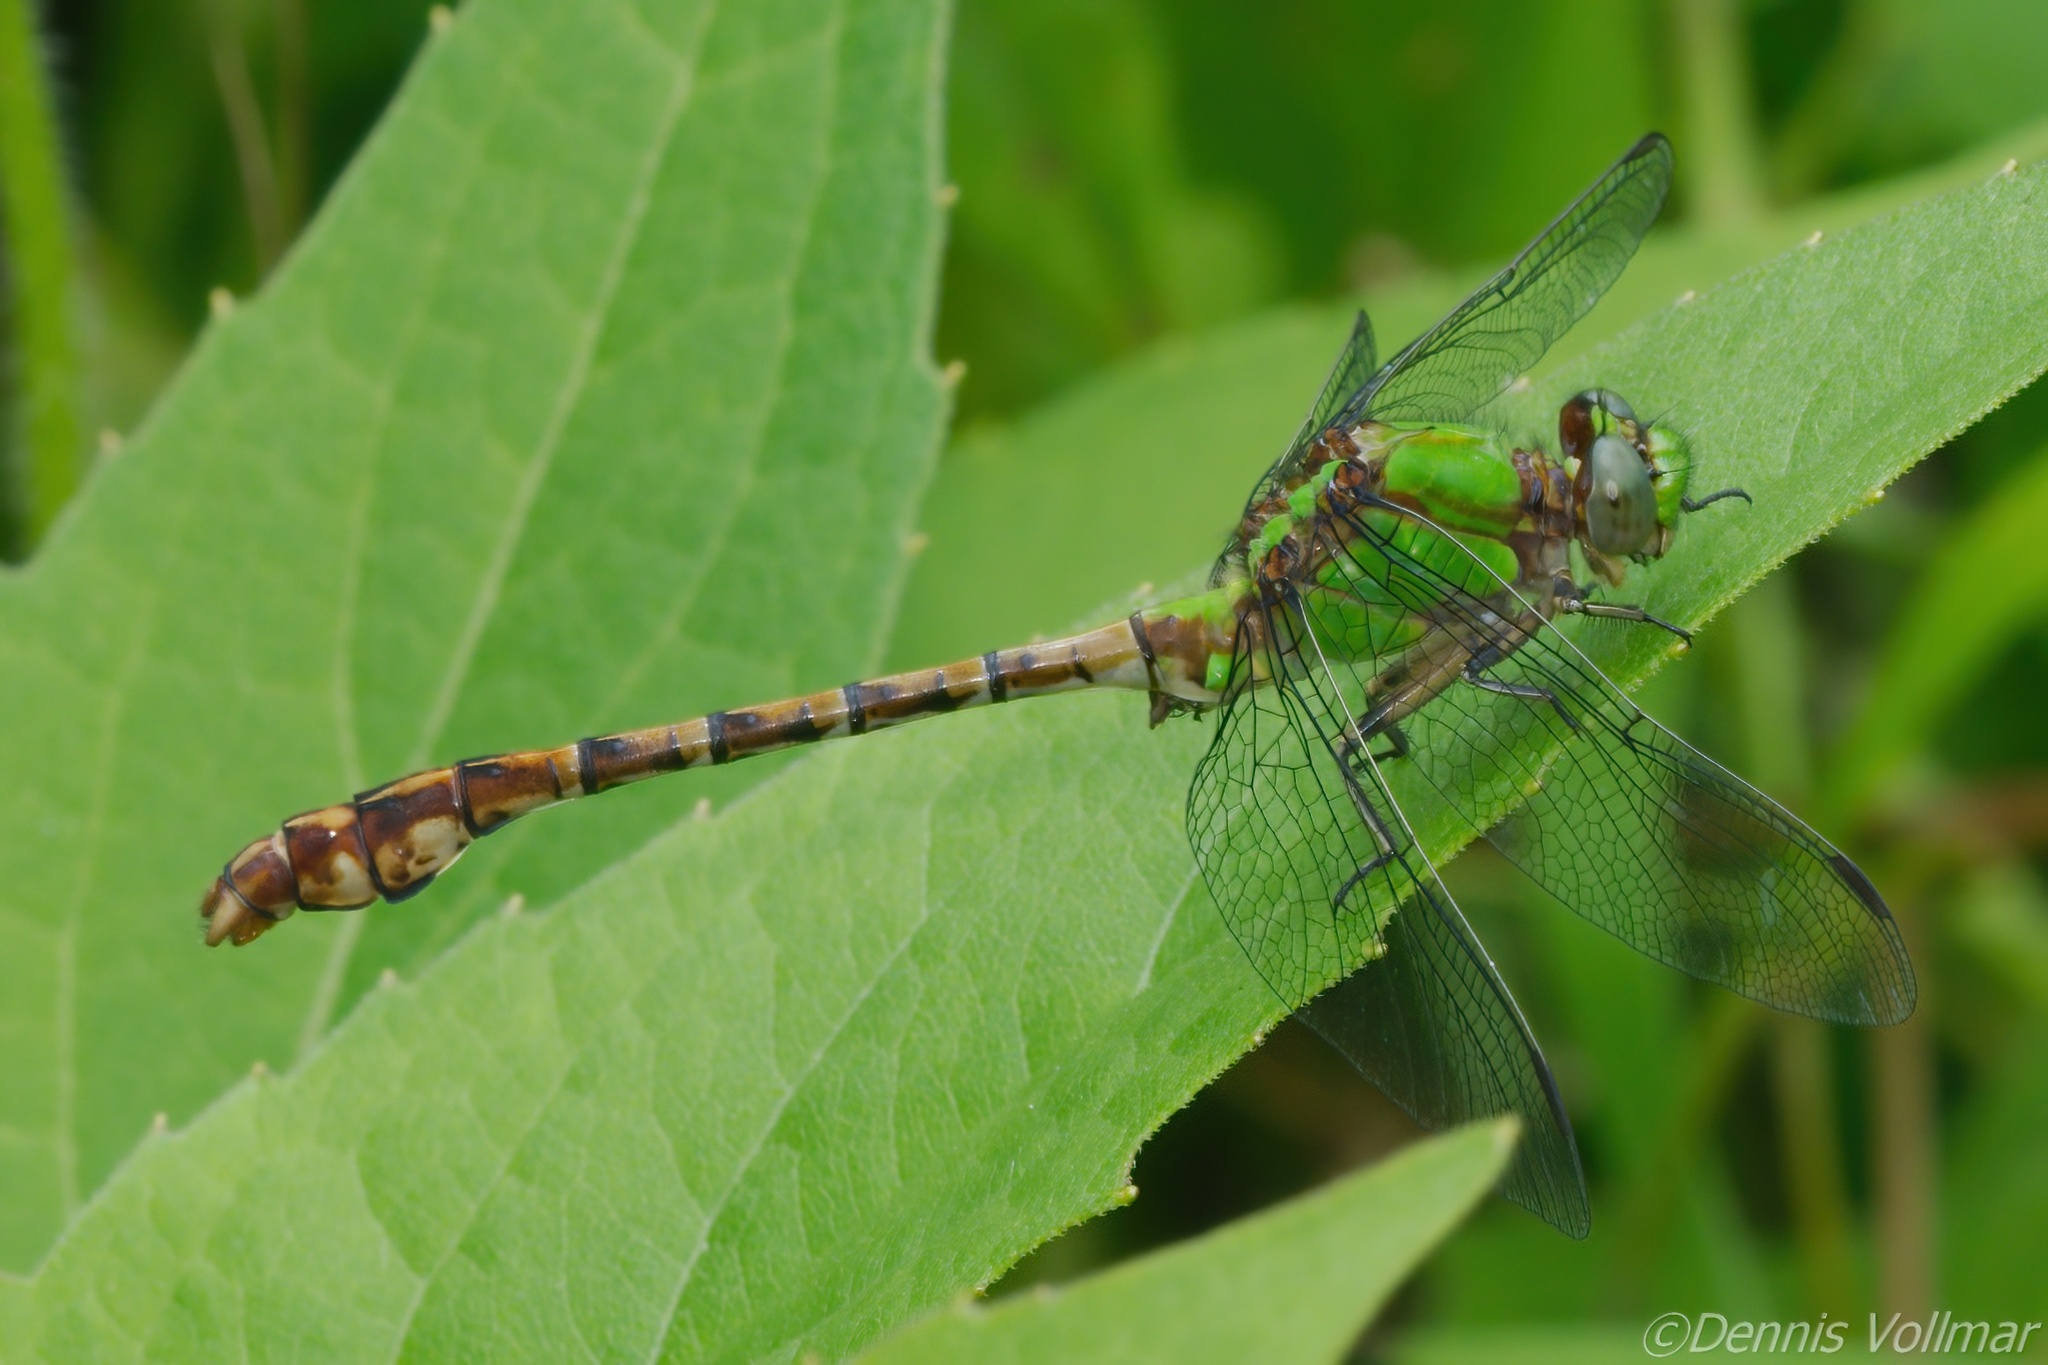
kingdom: Animalia
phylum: Arthropoda
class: Insecta
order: Odonata
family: Gomphidae
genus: Ophiogomphus
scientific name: Ophiogomphus rupinsulensis
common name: Rusty snaketail
